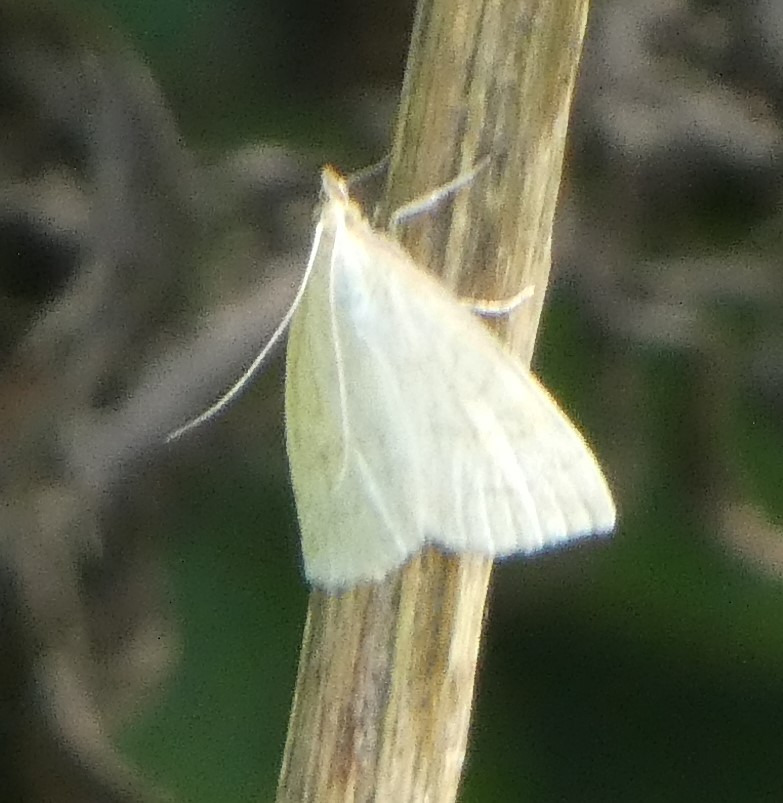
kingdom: Animalia
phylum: Arthropoda
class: Insecta
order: Lepidoptera
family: Crambidae
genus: Udea
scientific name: Udea lutealis
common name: Pale straw pearl
